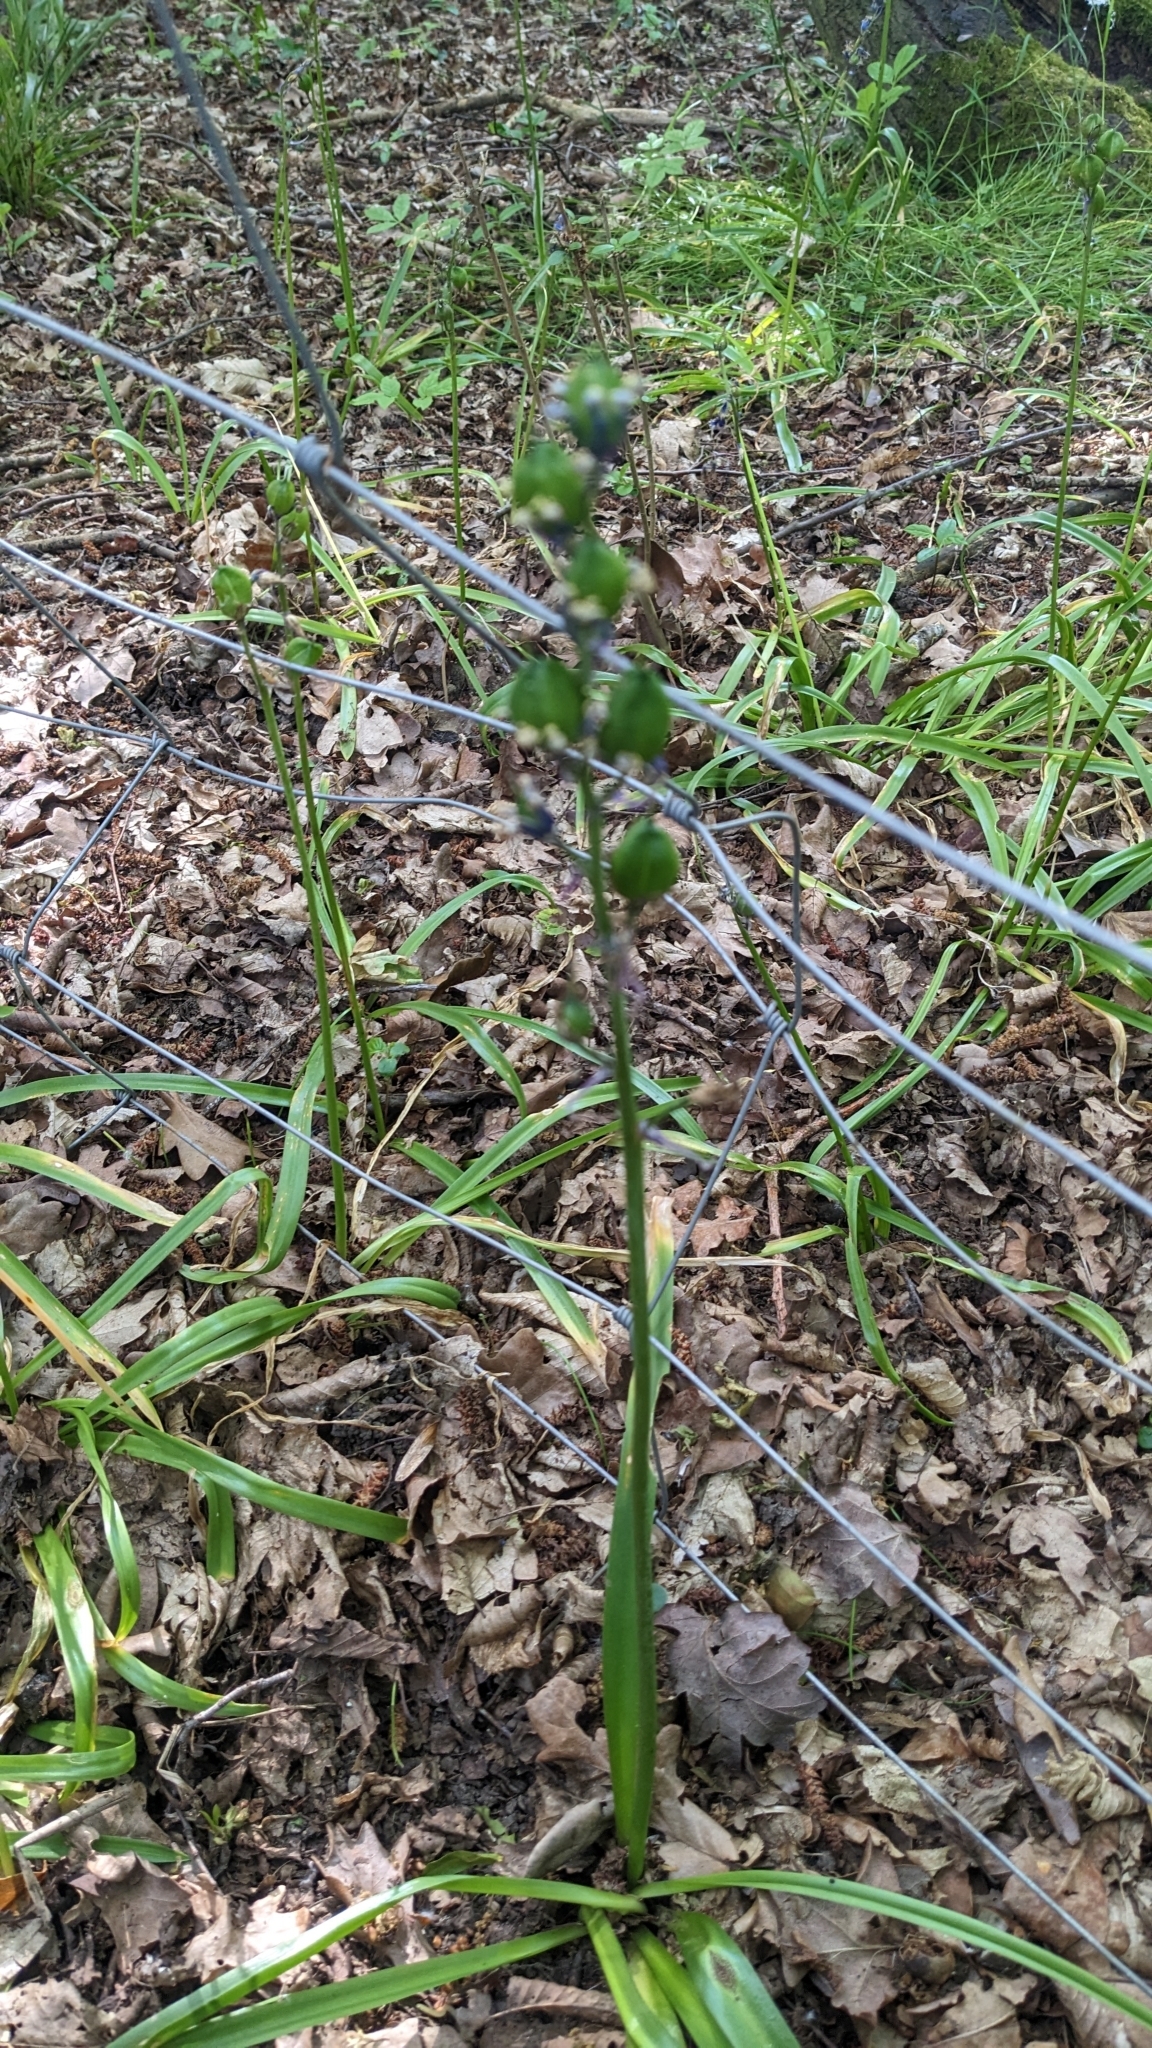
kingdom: Fungi
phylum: Basidiomycota
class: Pucciniomycetes
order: Pucciniales
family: Pucciniaceae
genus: Uromyces
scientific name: Uromyces hyacinthi
